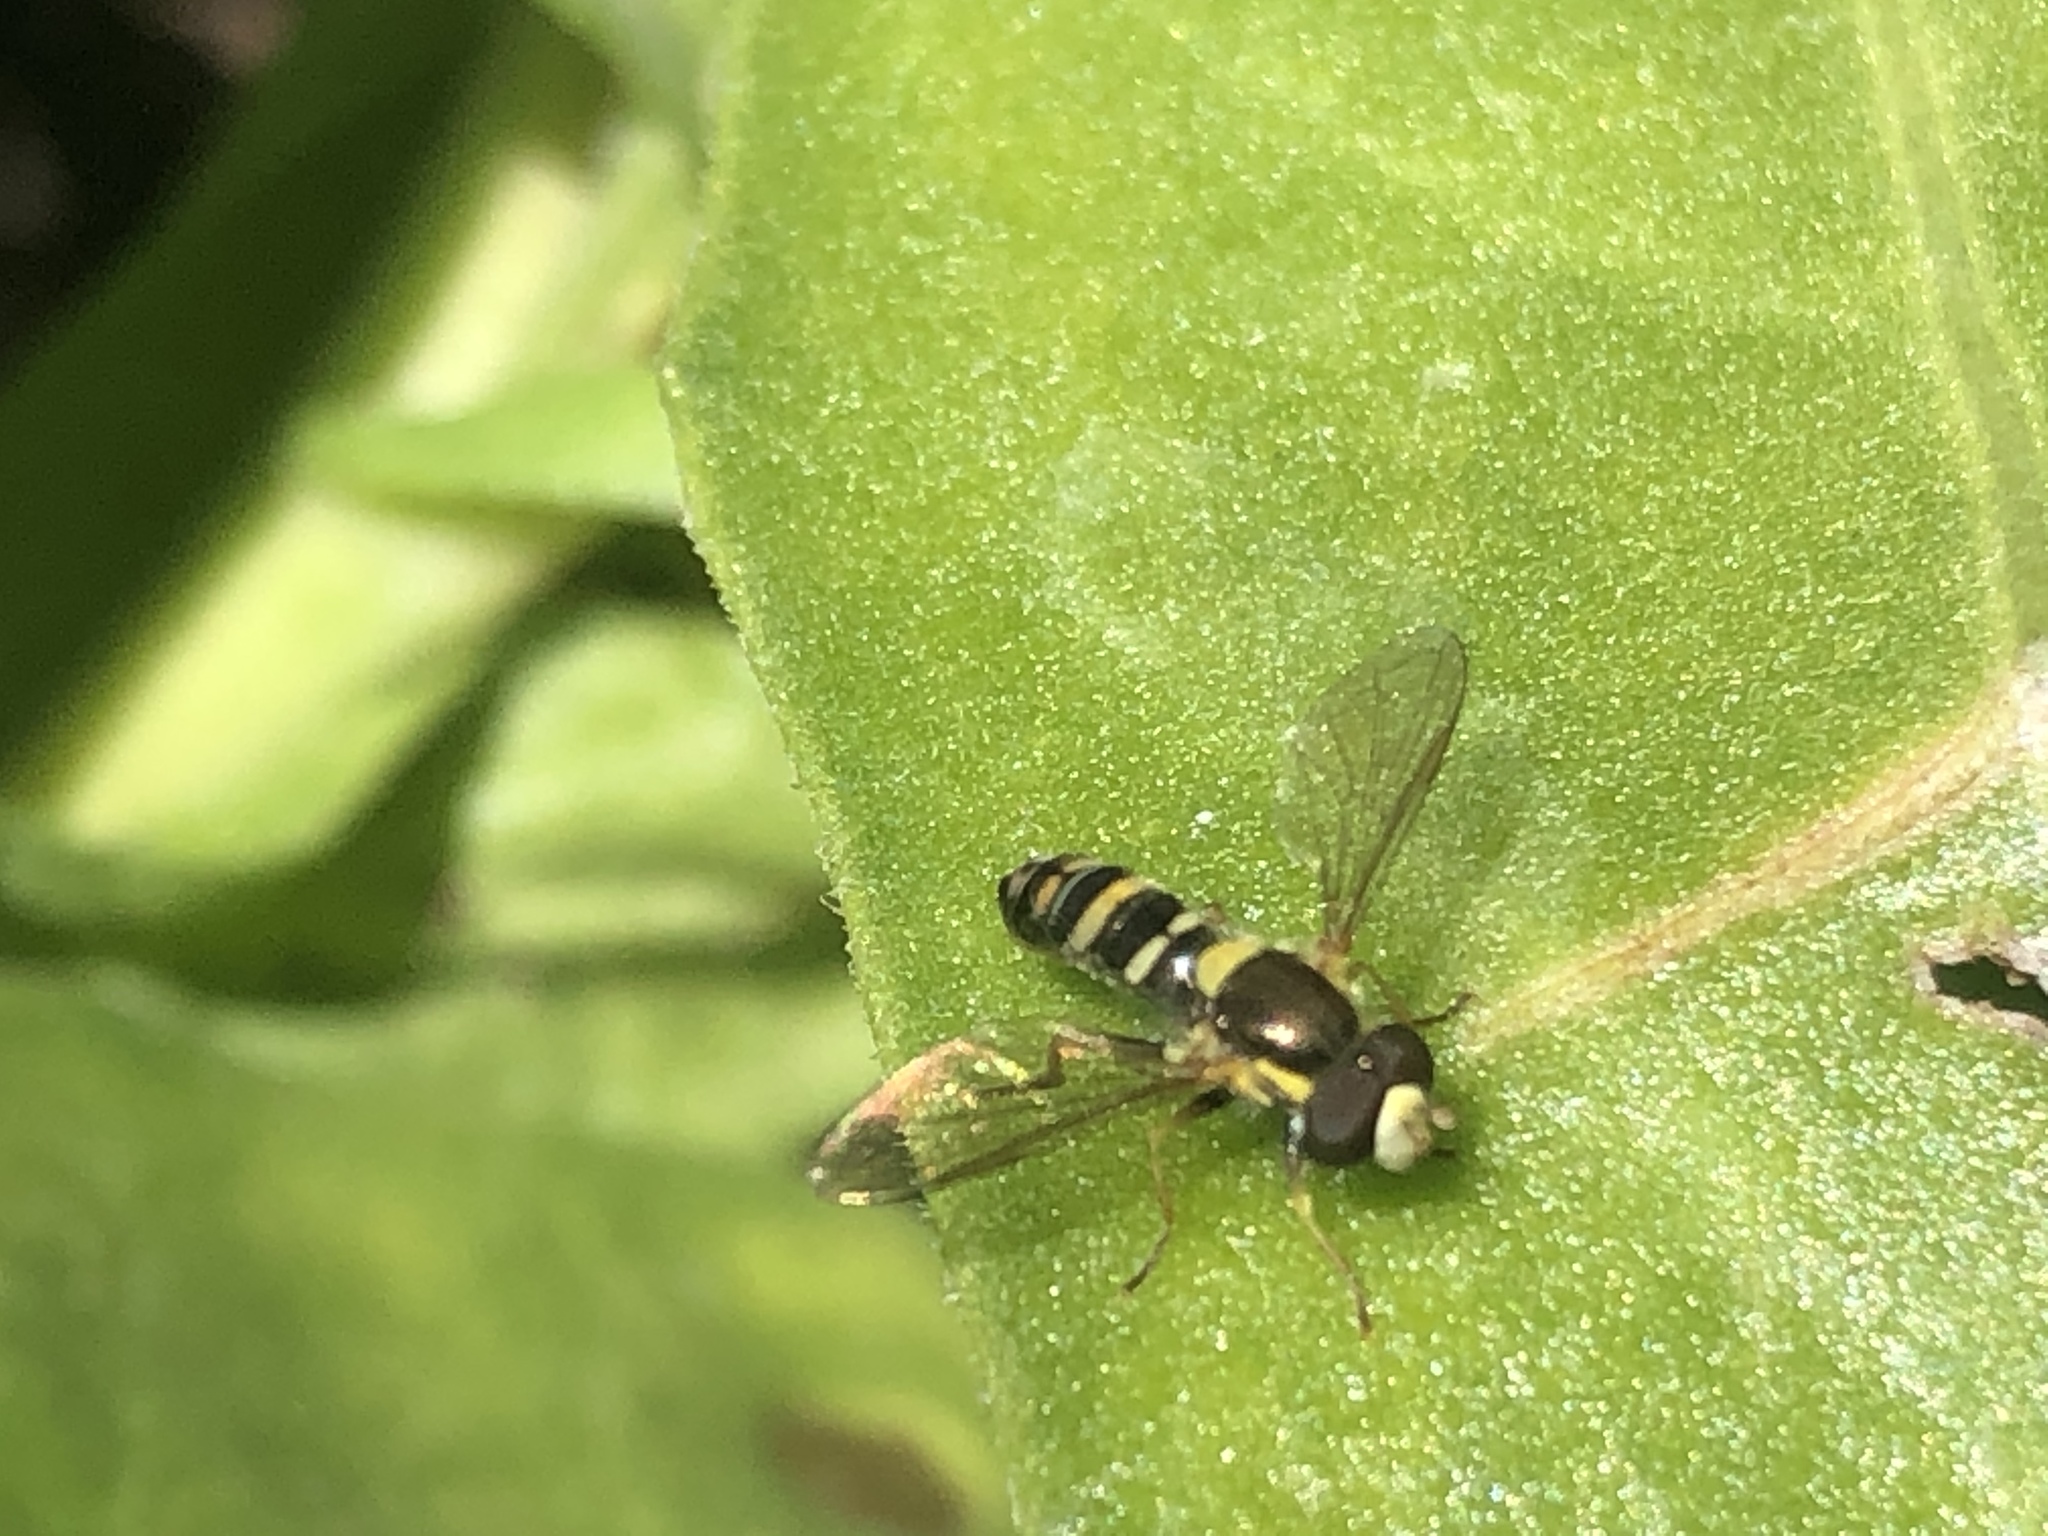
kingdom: Animalia
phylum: Arthropoda
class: Insecta
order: Diptera
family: Syrphidae
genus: Sphaerophoria
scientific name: Sphaerophoria sulphuripes
